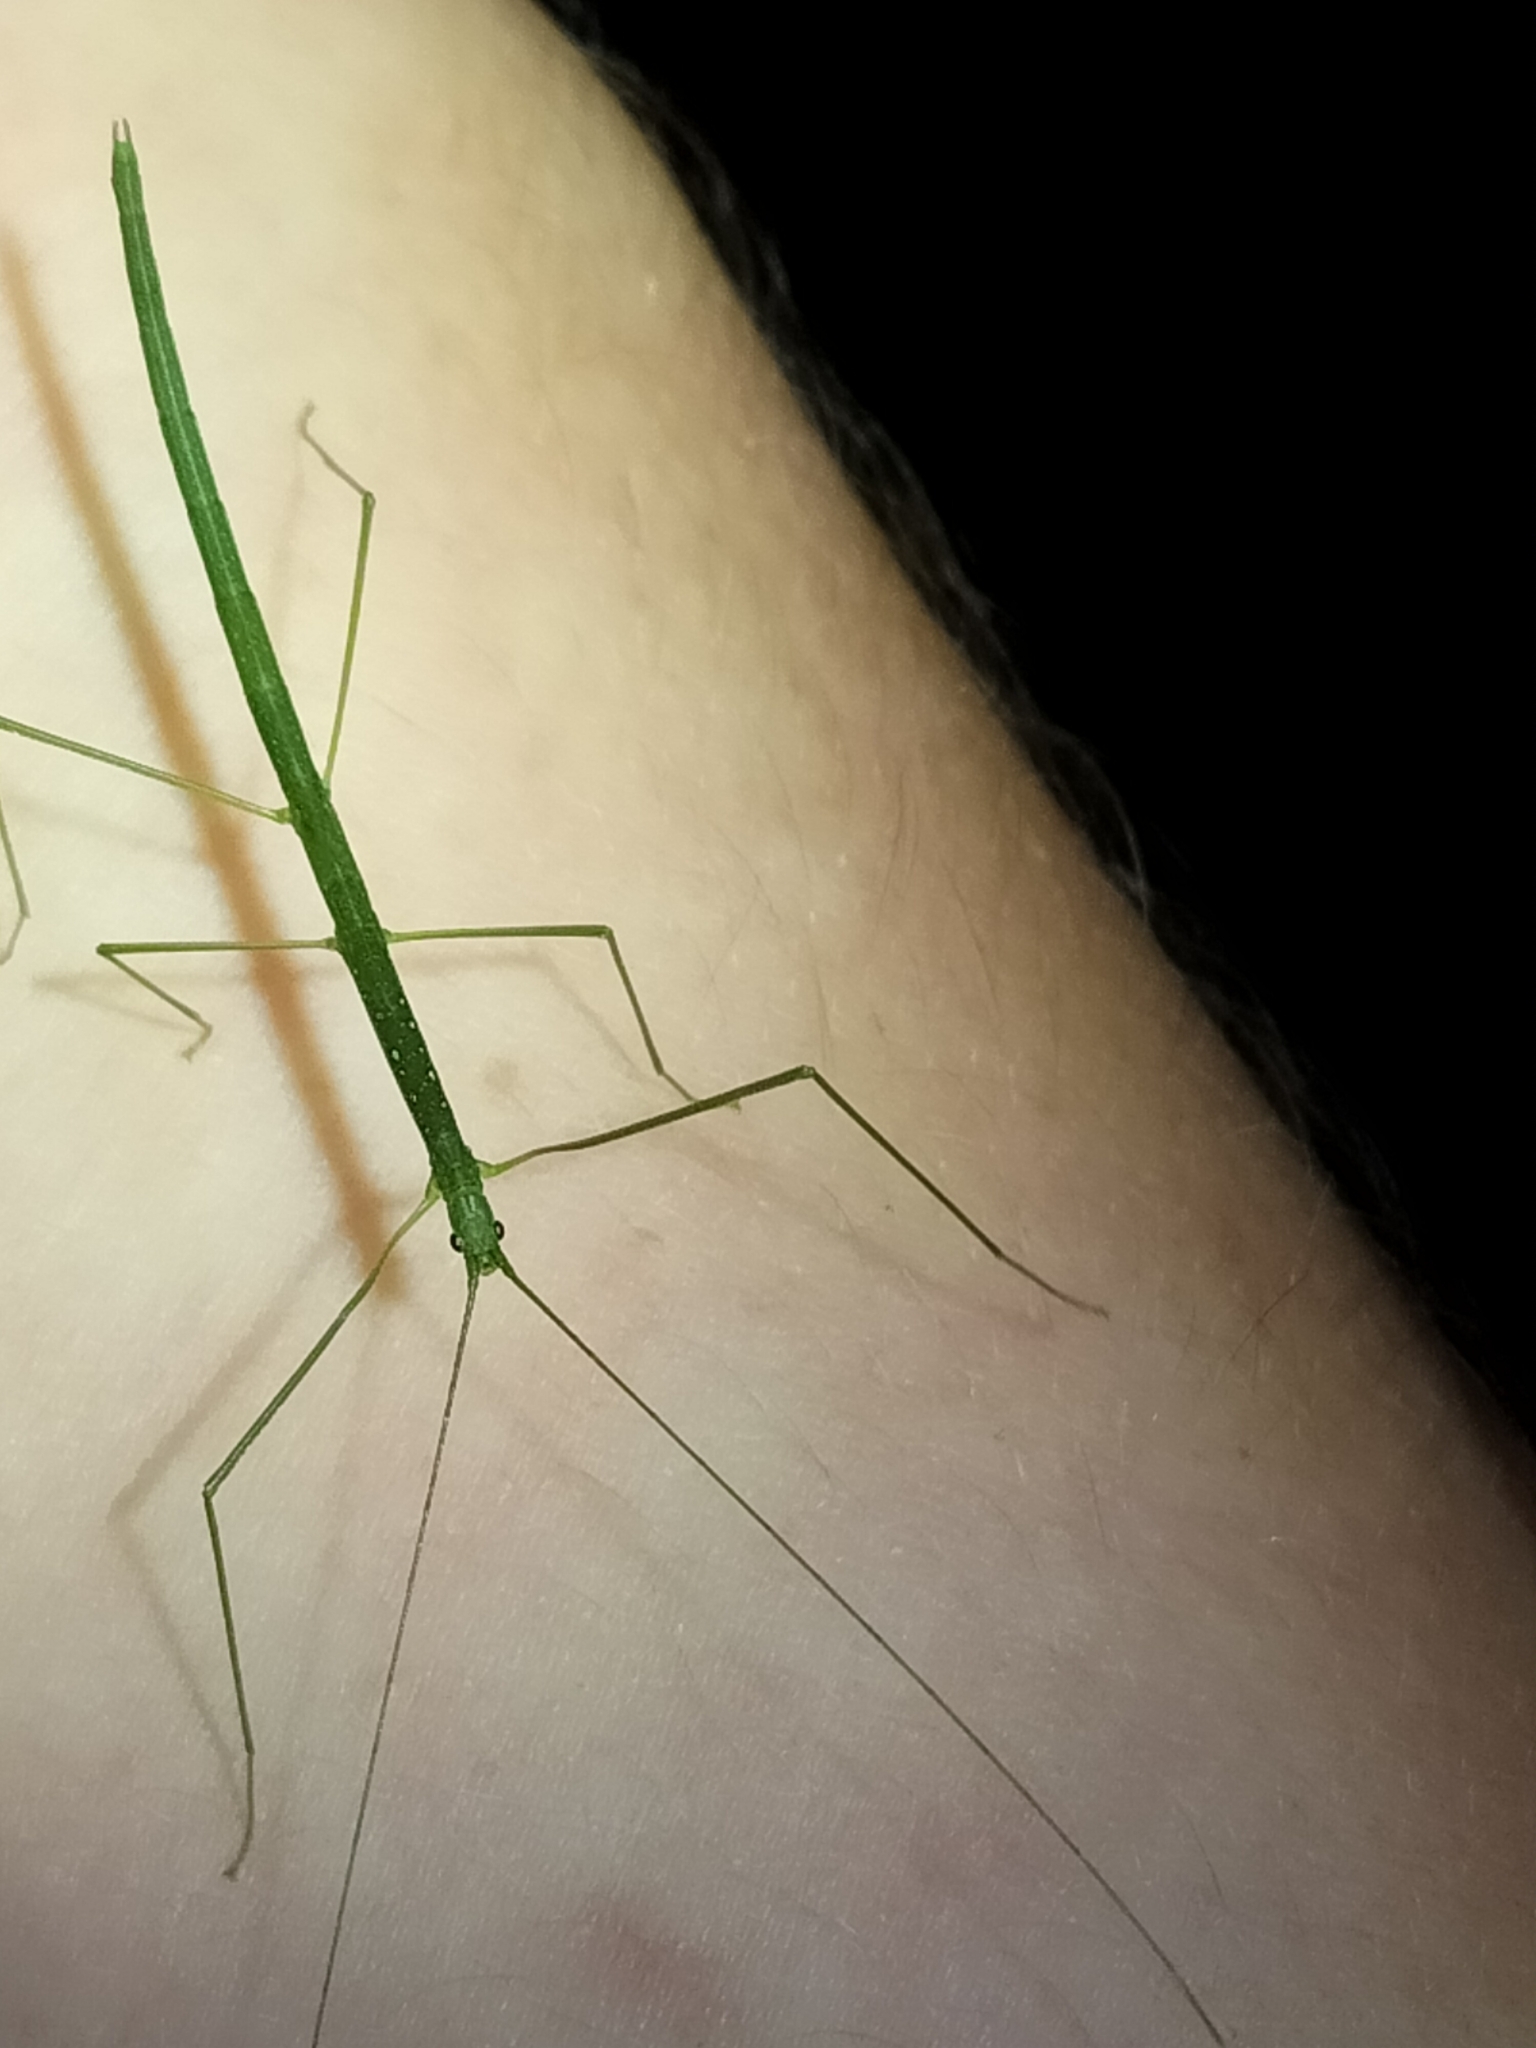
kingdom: Animalia
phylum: Arthropoda
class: Insecta
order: Phasmida
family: Lonchodidae
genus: Sipyloidea
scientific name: Sipyloidea rentzi
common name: Rentz's sipyloidea stick-insect
